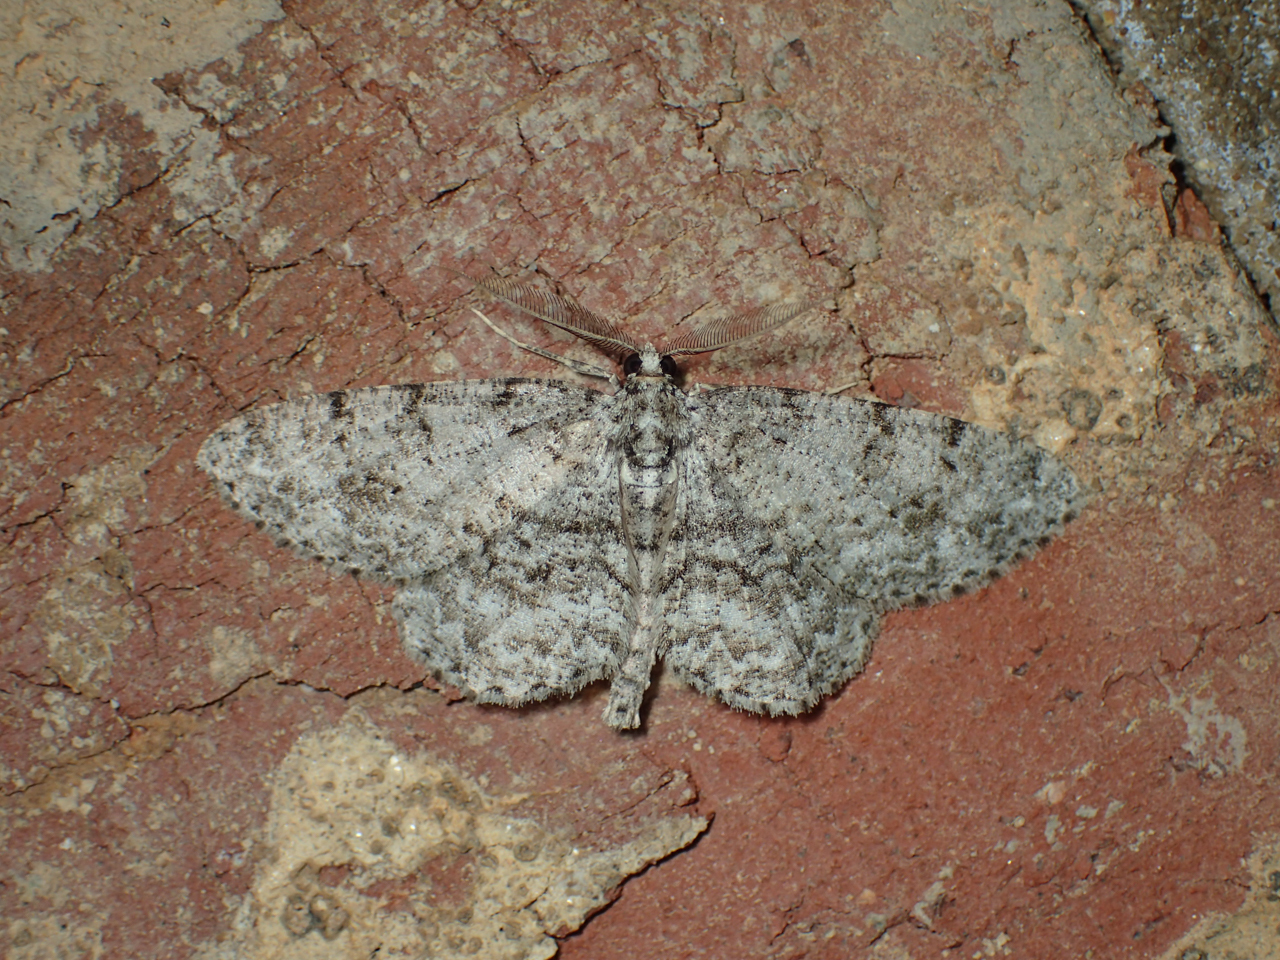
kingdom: Animalia
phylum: Arthropoda
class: Insecta
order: Lepidoptera
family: Geometridae
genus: Protoboarmia
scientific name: Protoboarmia porcelaria
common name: Porcelain gray
